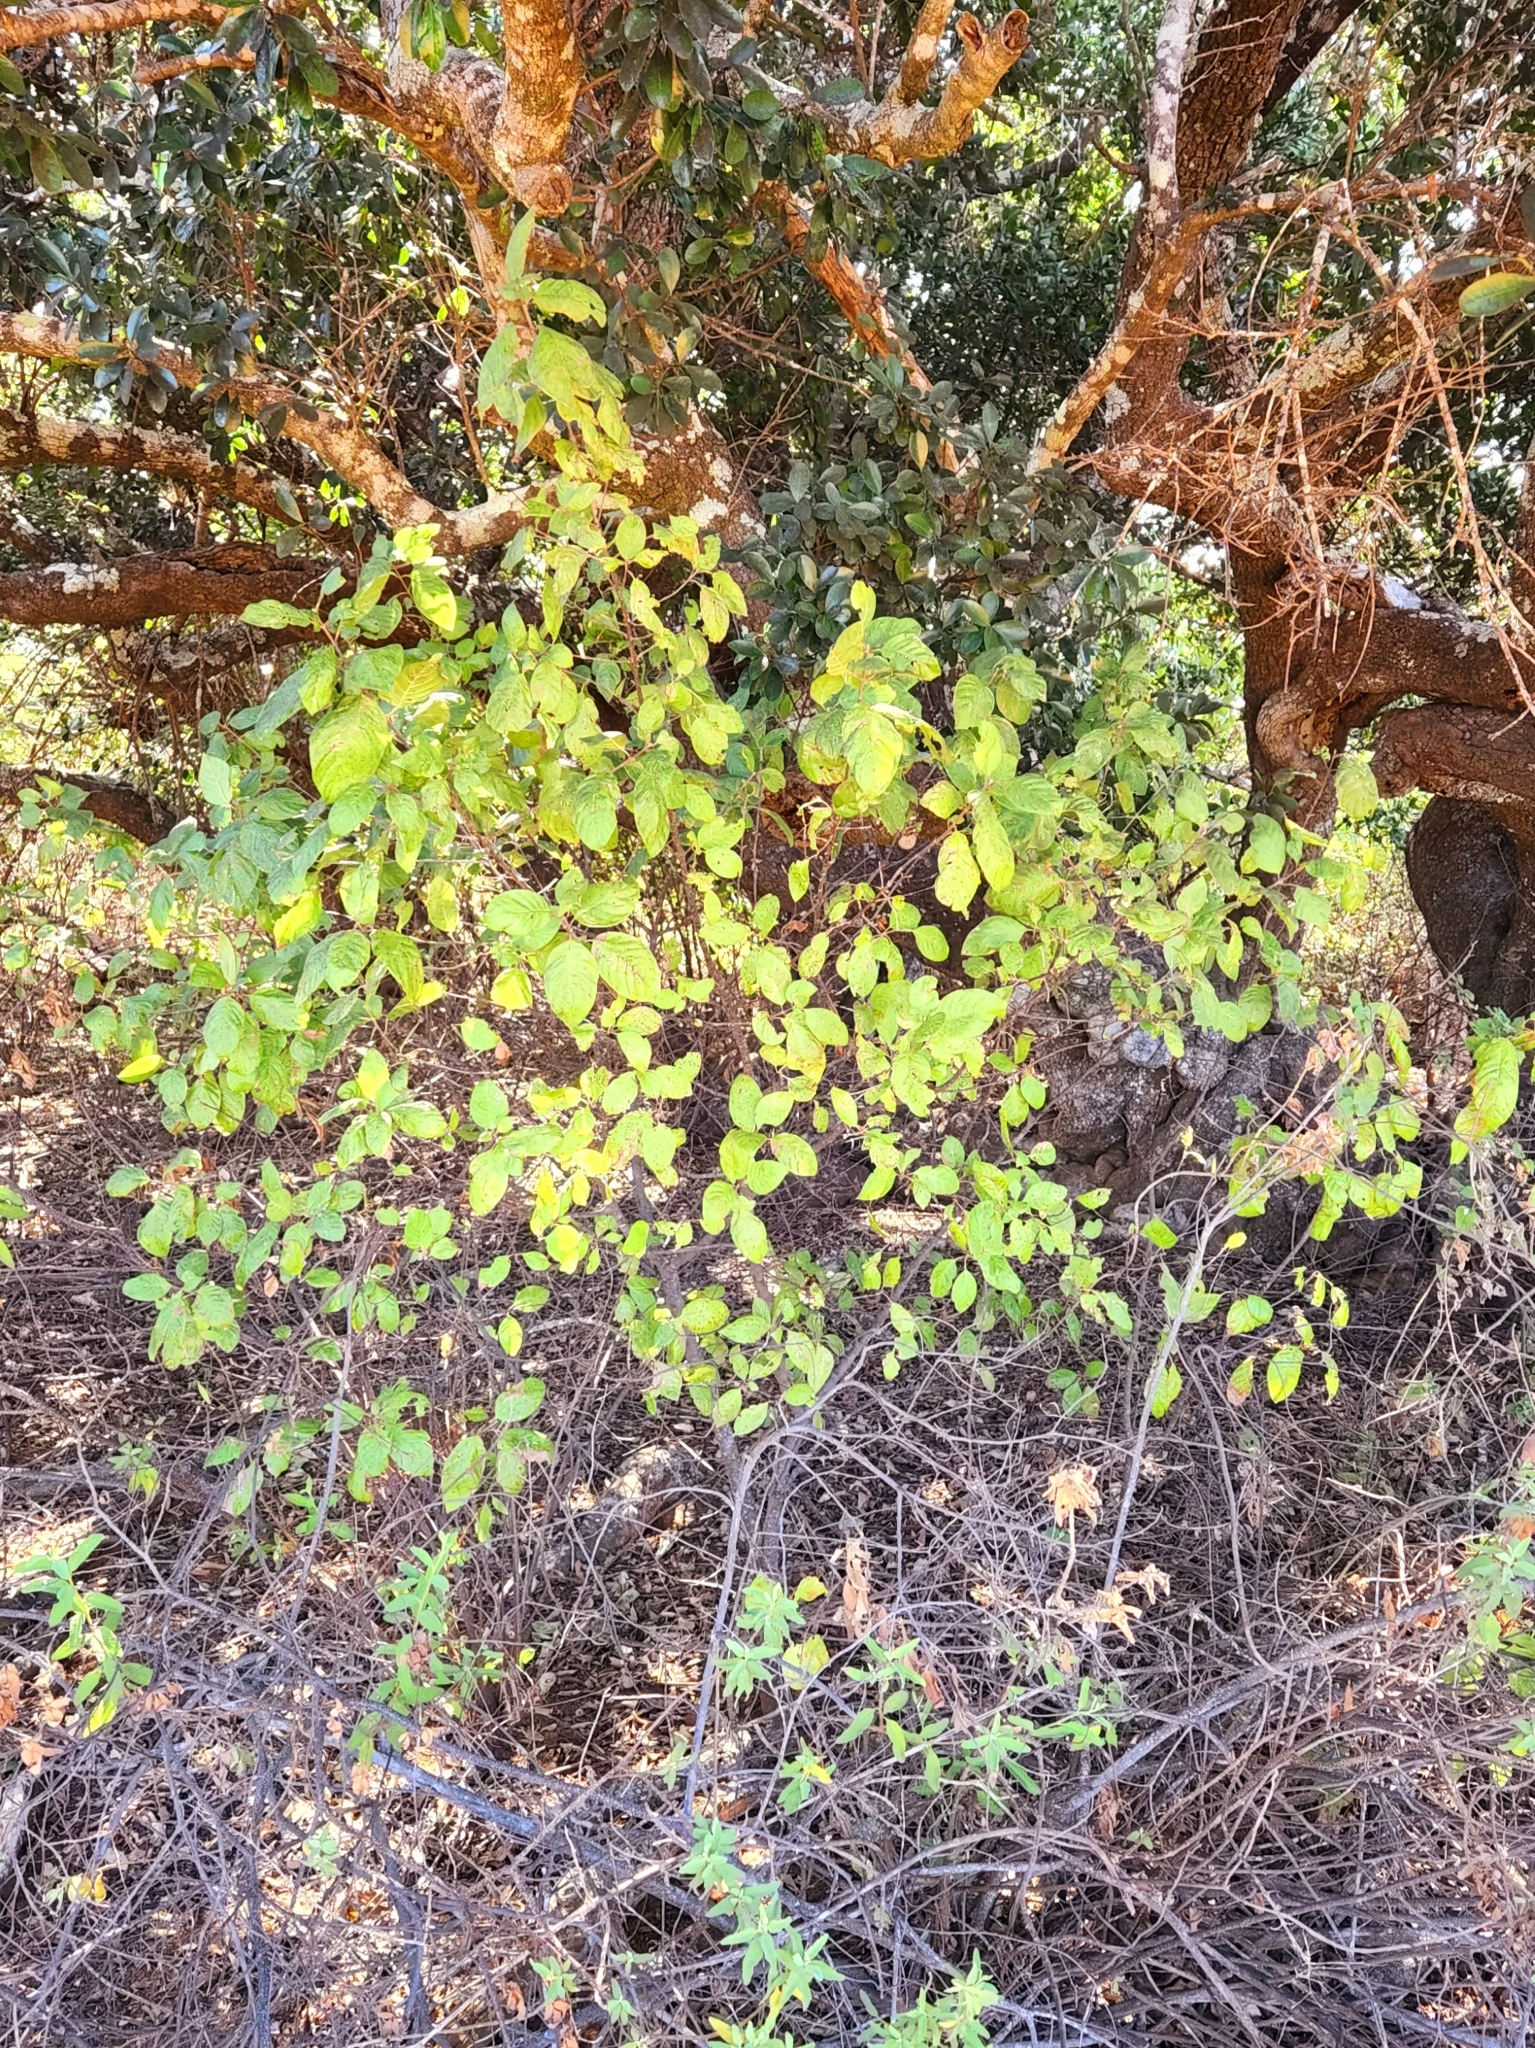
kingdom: Plantae
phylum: Tracheophyta
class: Magnoliopsida
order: Gentianales
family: Rubiaceae
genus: Guettarda
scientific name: Guettarda insularis
